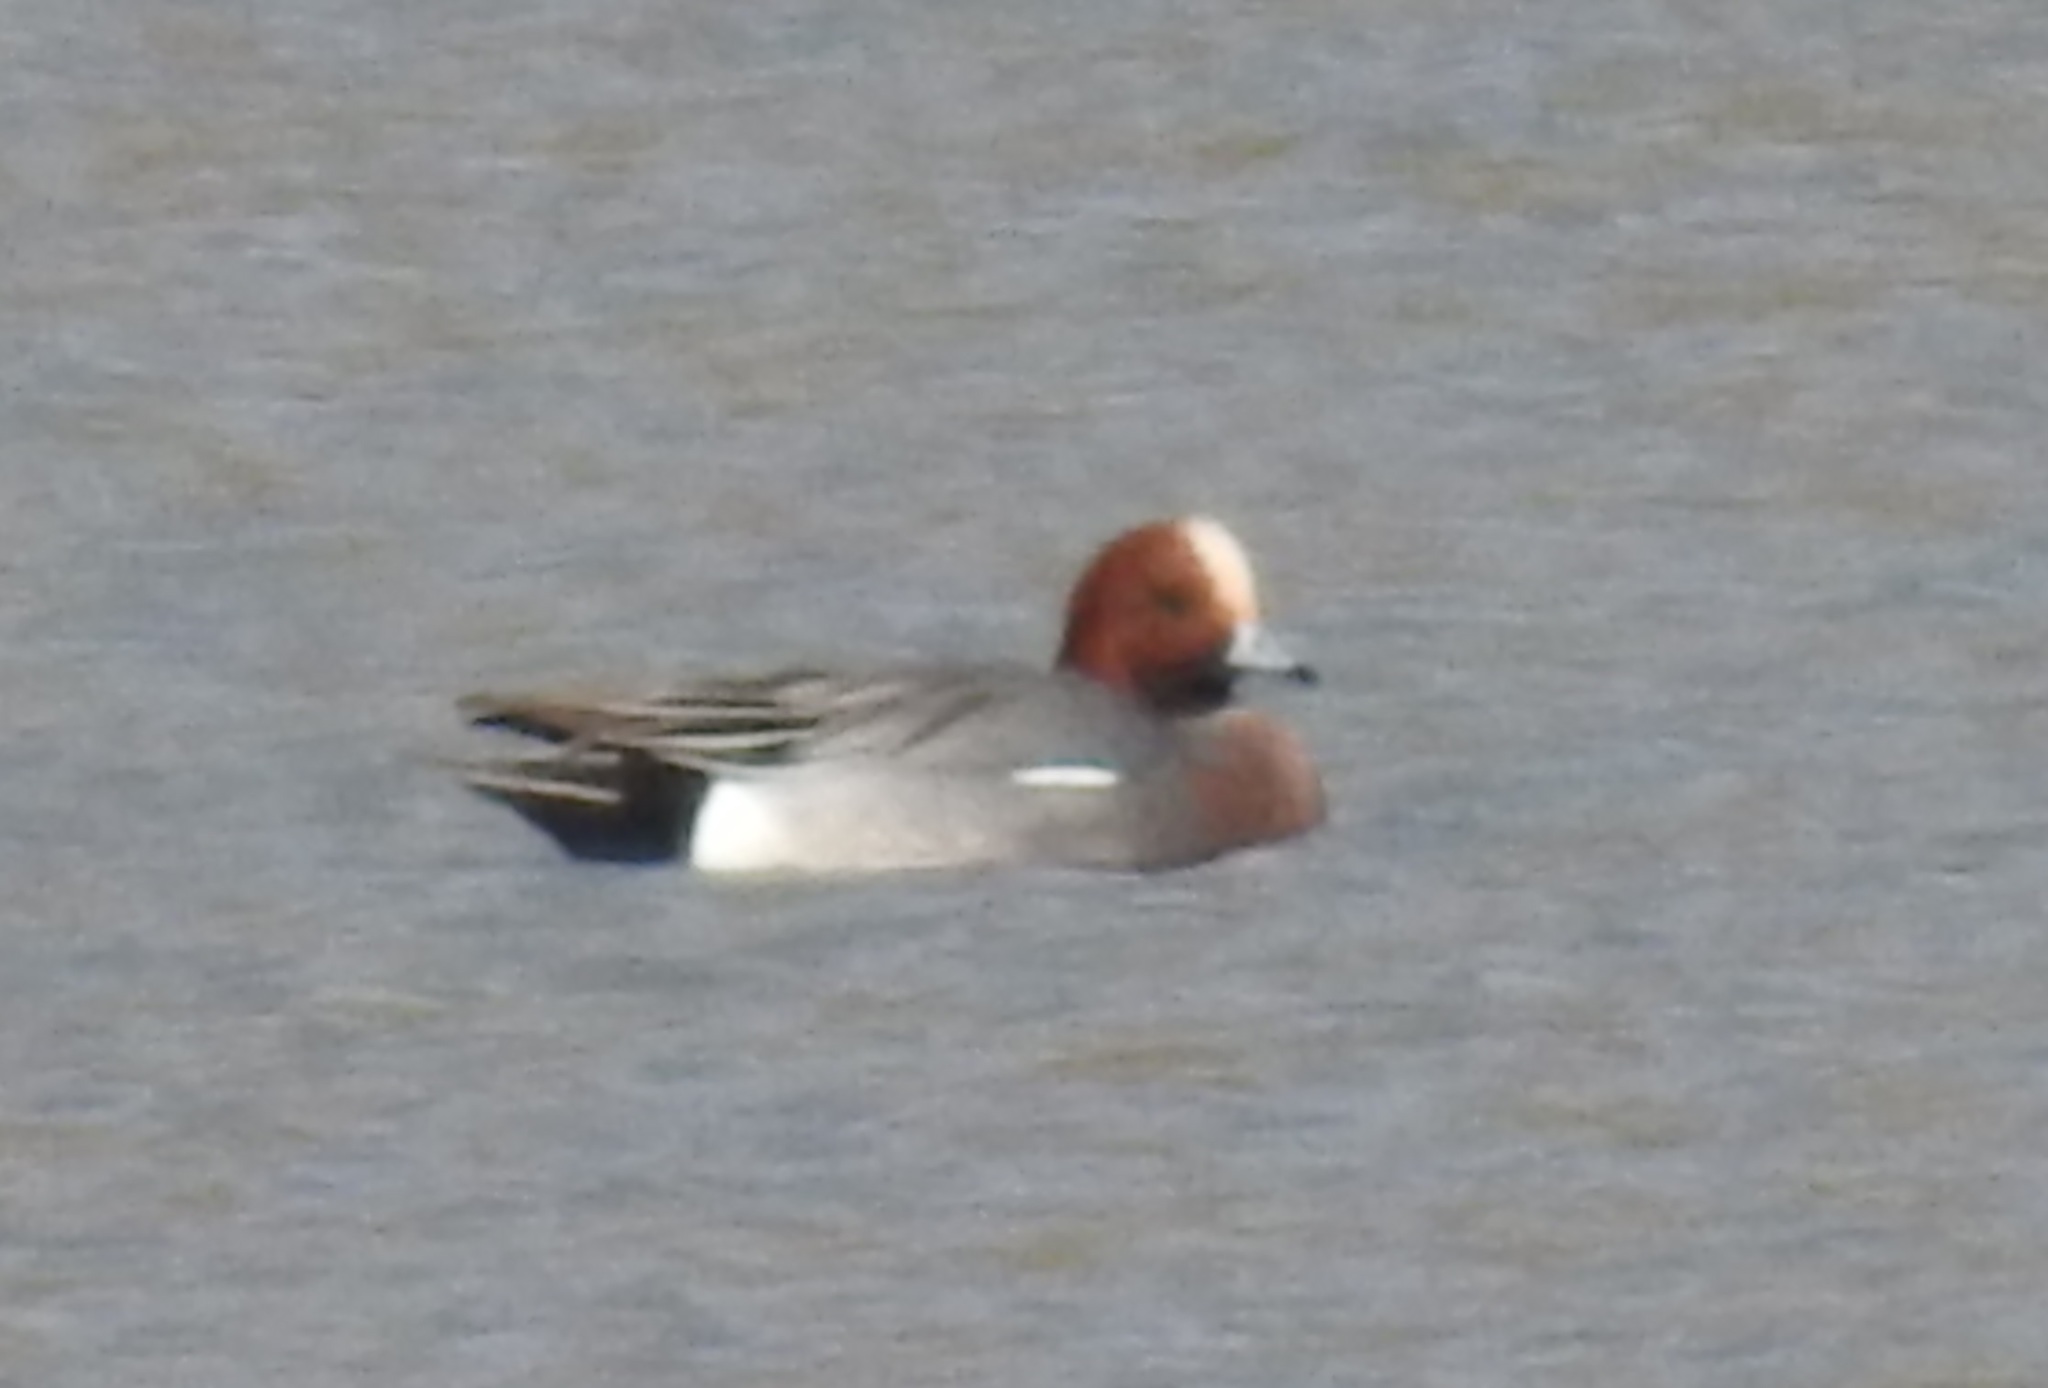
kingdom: Animalia
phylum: Chordata
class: Aves
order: Anseriformes
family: Anatidae
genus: Mareca
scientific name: Mareca penelope
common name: Eurasian wigeon
